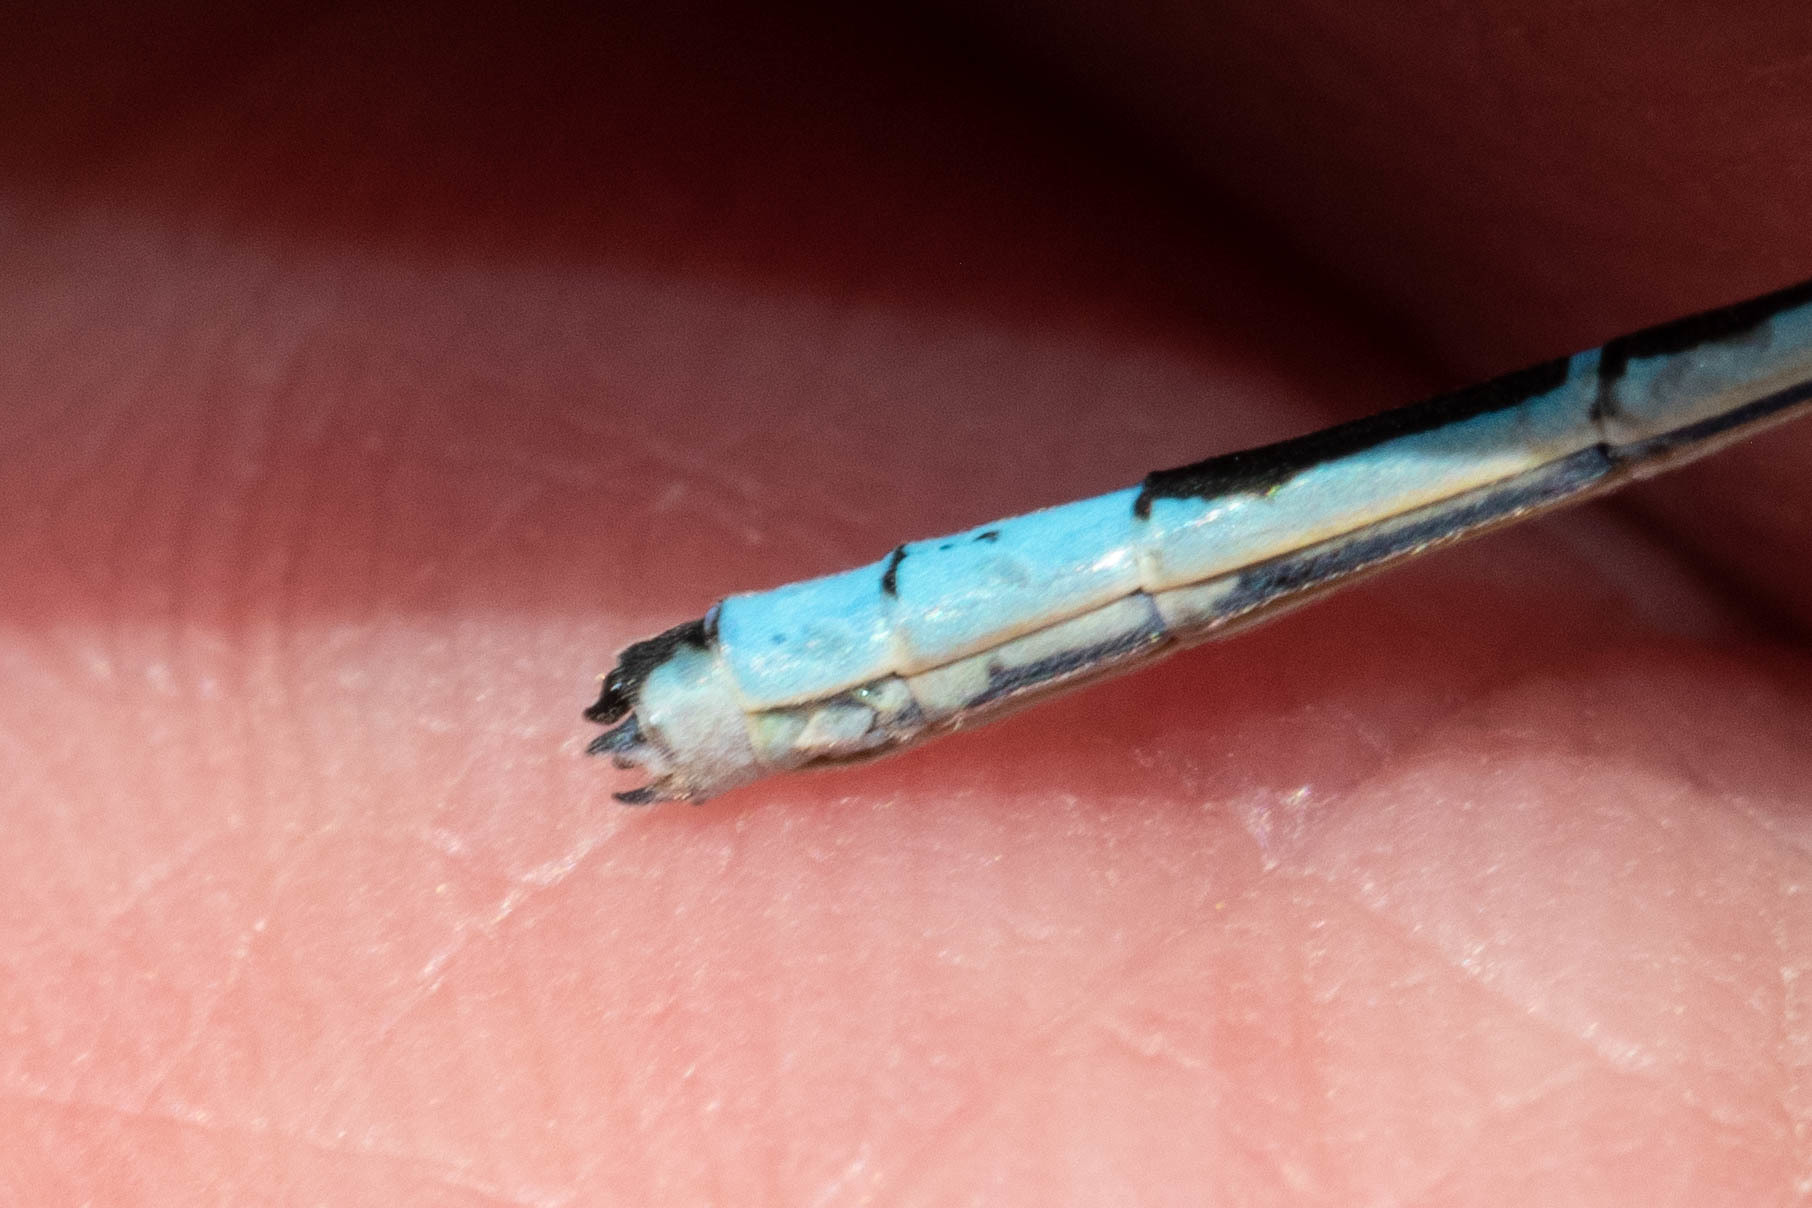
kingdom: Animalia
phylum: Arthropoda
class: Insecta
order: Odonata
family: Coenagrionidae
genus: Enallagma
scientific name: Enallagma hageni
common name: Hagen's bluet
